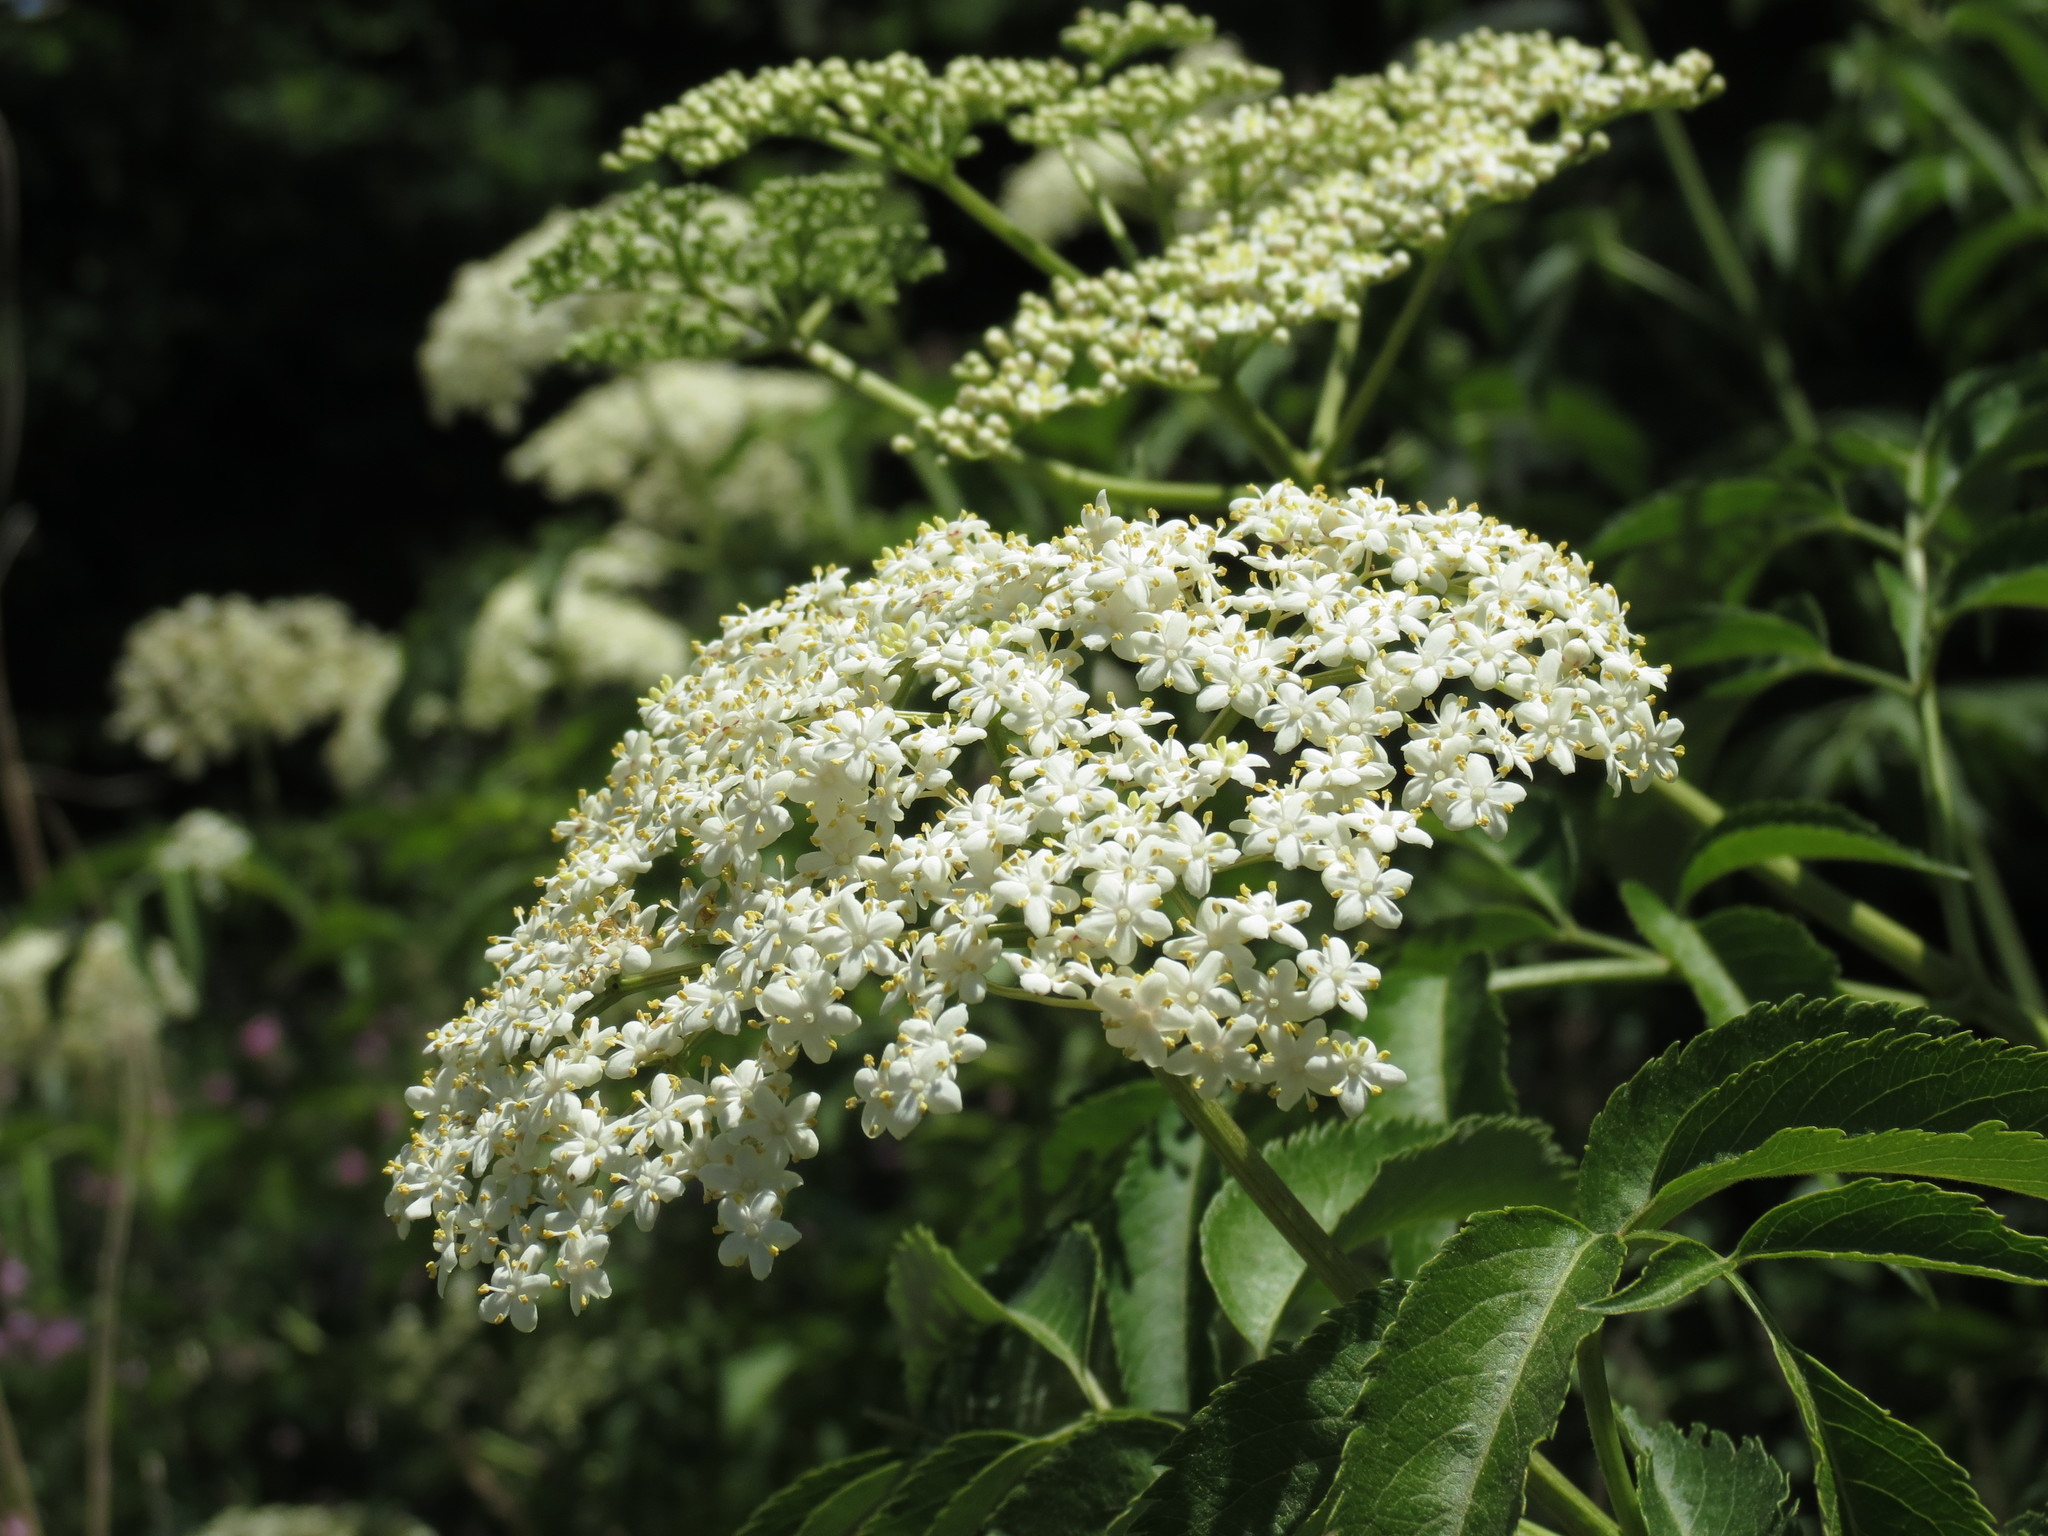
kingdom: Plantae
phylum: Tracheophyta
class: Magnoliopsida
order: Dipsacales
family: Viburnaceae
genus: Sambucus
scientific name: Sambucus canadensis
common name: American elder
